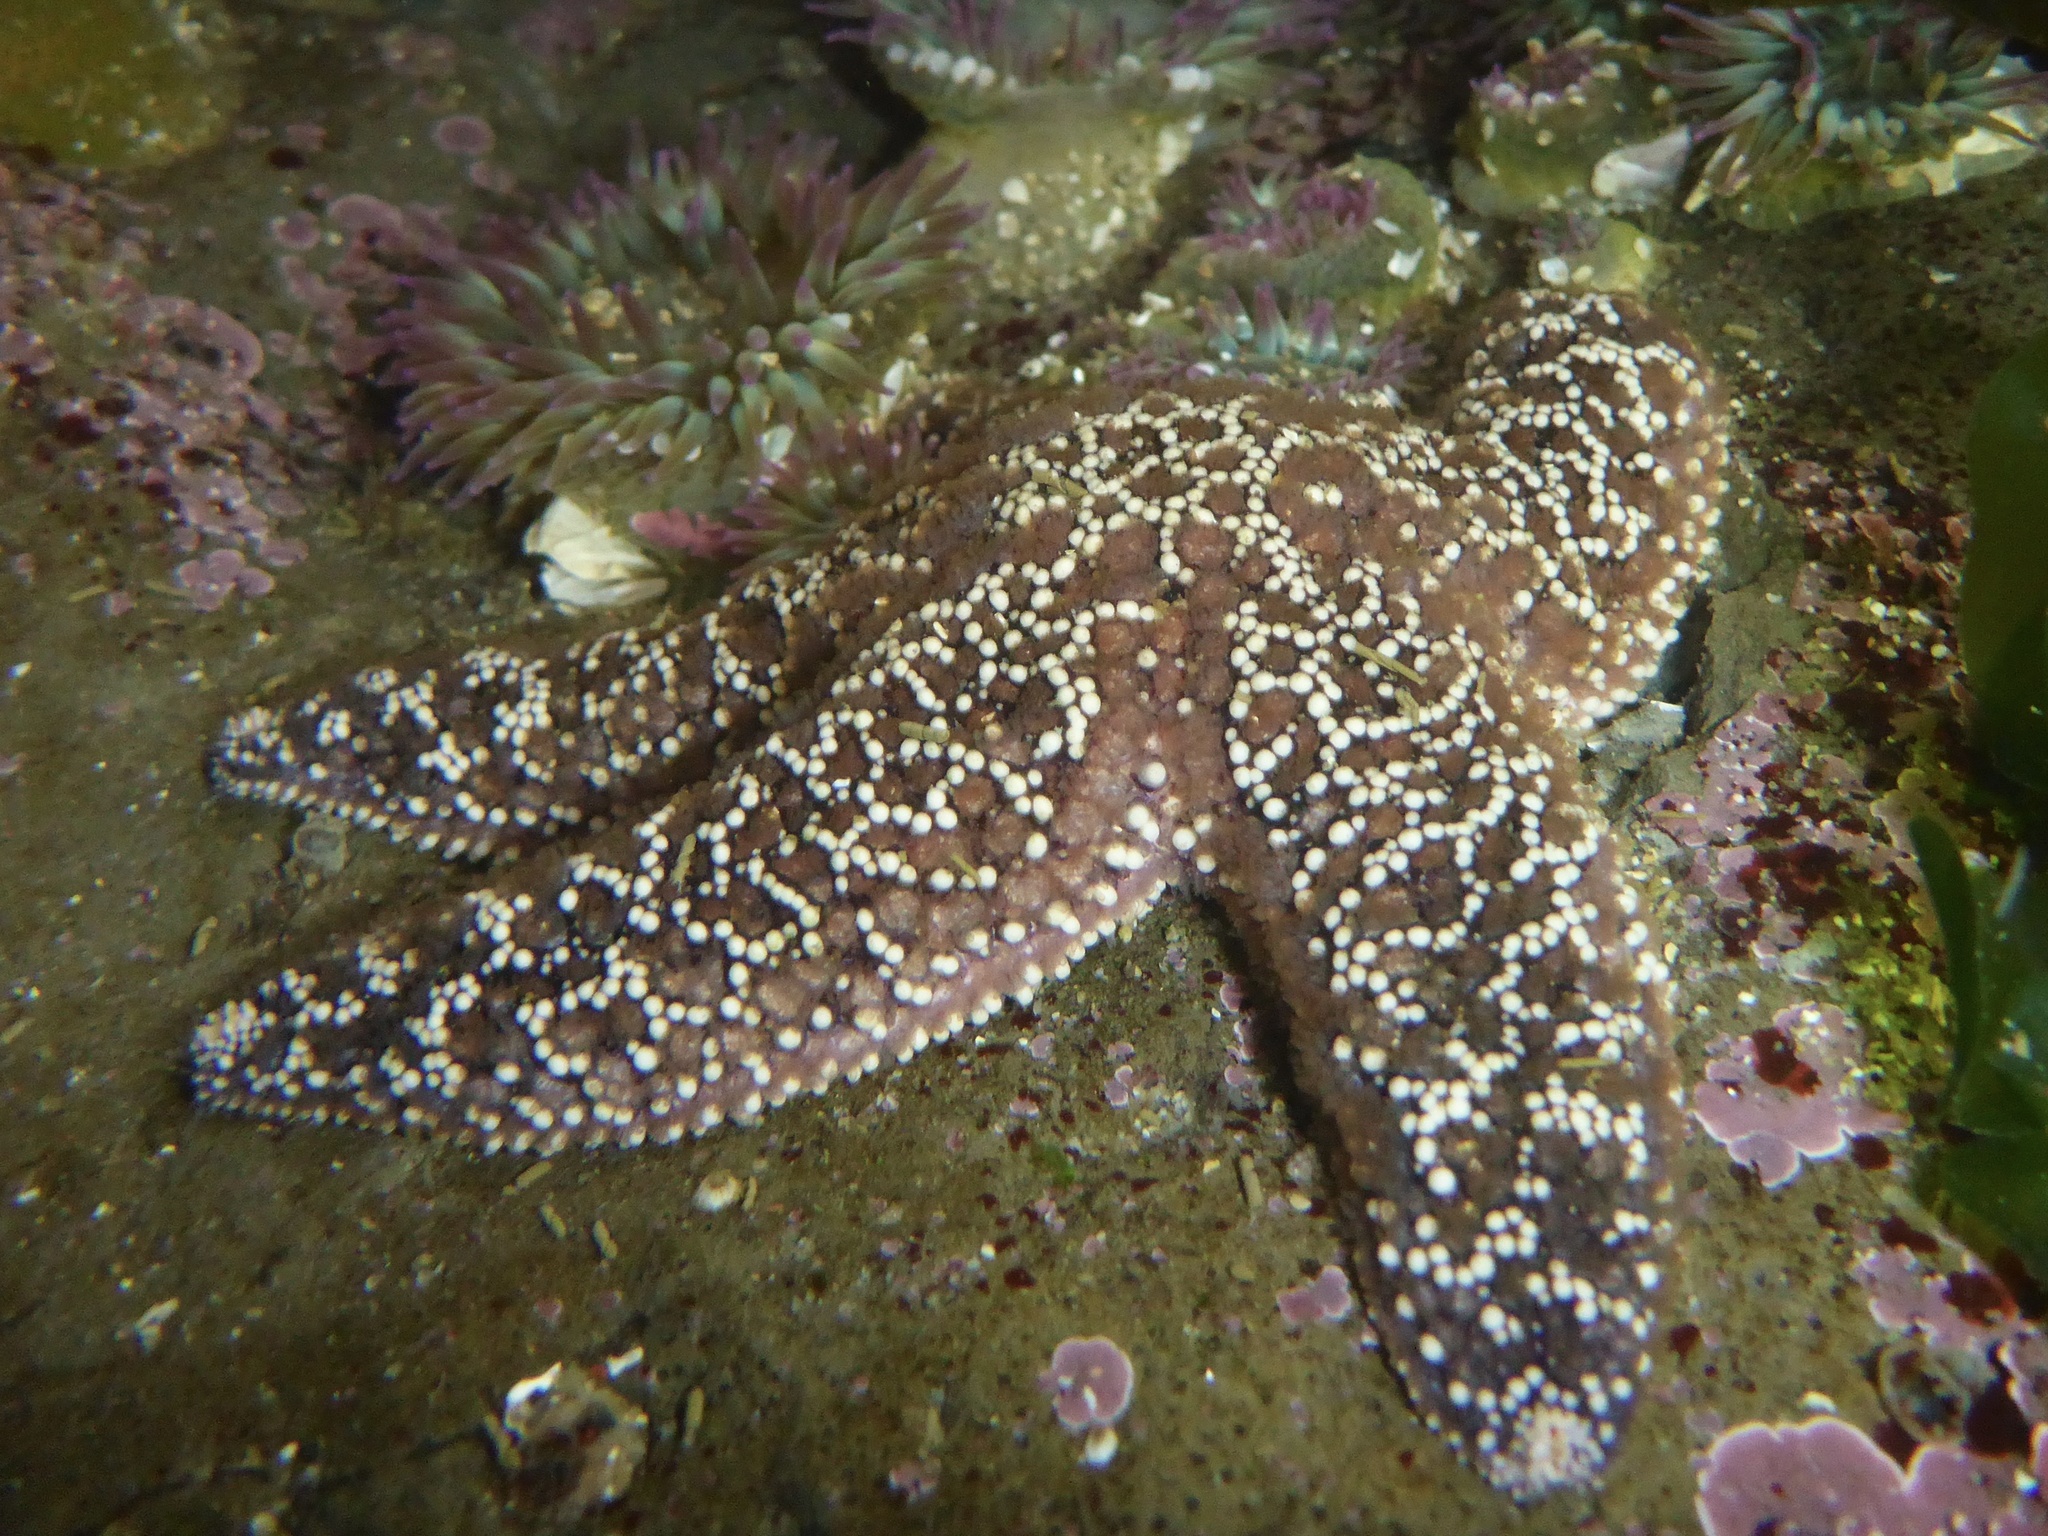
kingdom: Animalia
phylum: Echinodermata
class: Asteroidea
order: Forcipulatida
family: Asteriidae
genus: Pisaster
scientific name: Pisaster ochraceus
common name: Ochre stars
